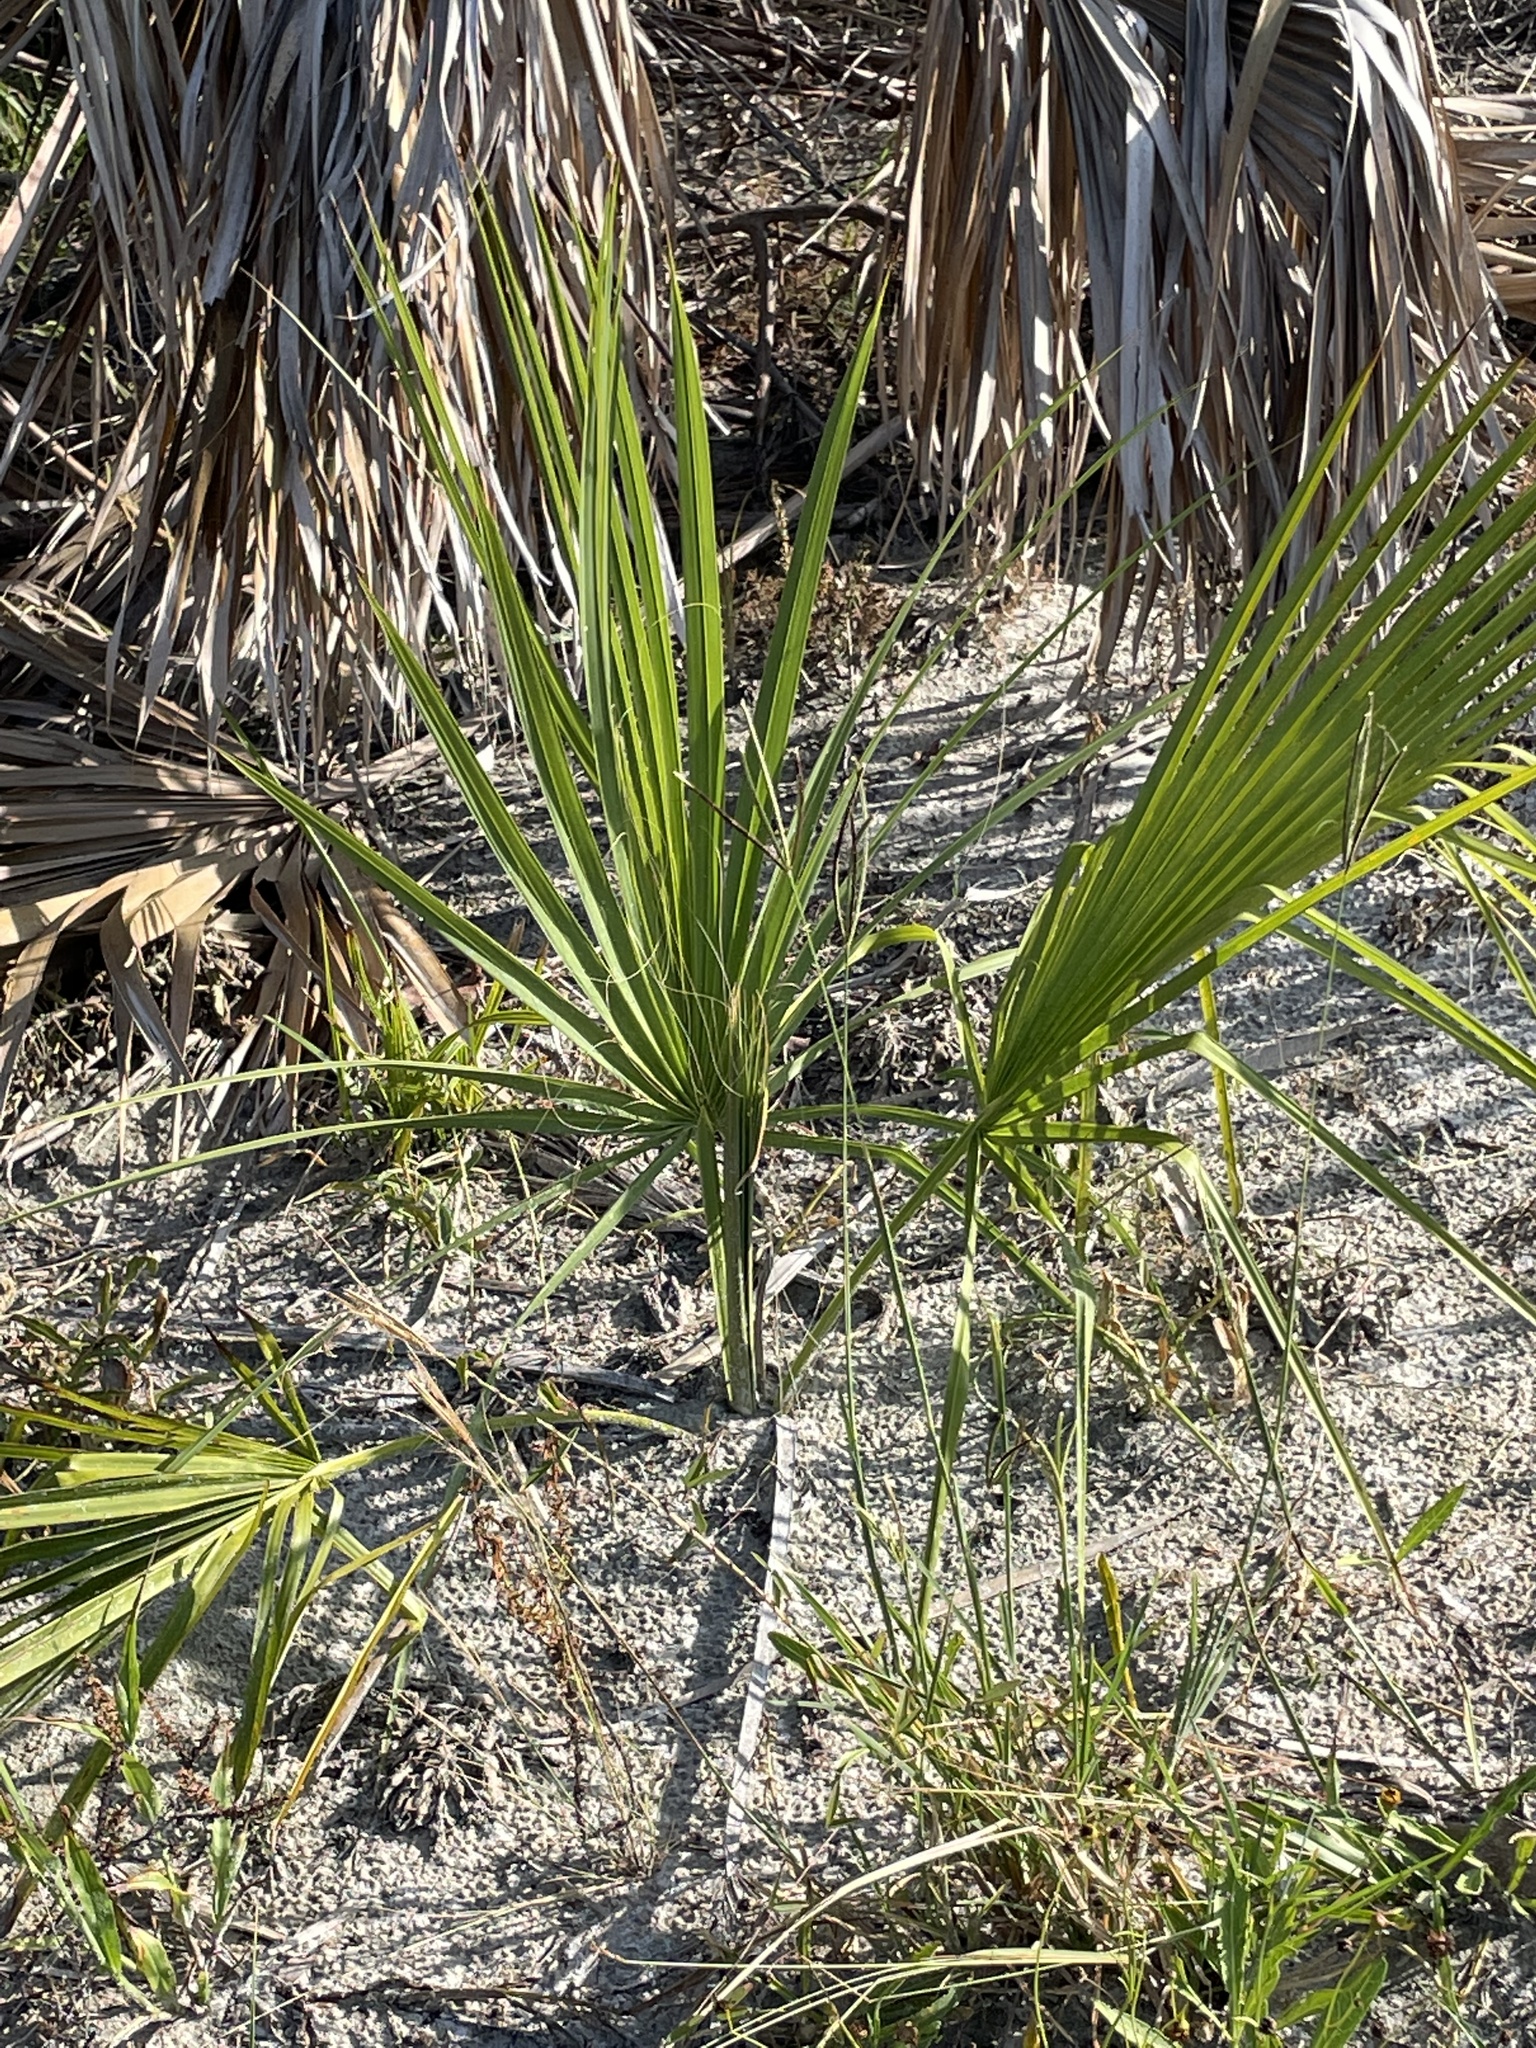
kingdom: Plantae
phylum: Tracheophyta
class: Liliopsida
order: Arecales
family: Arecaceae
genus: Sabal
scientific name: Sabal palmetto
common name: Blue palmetto
